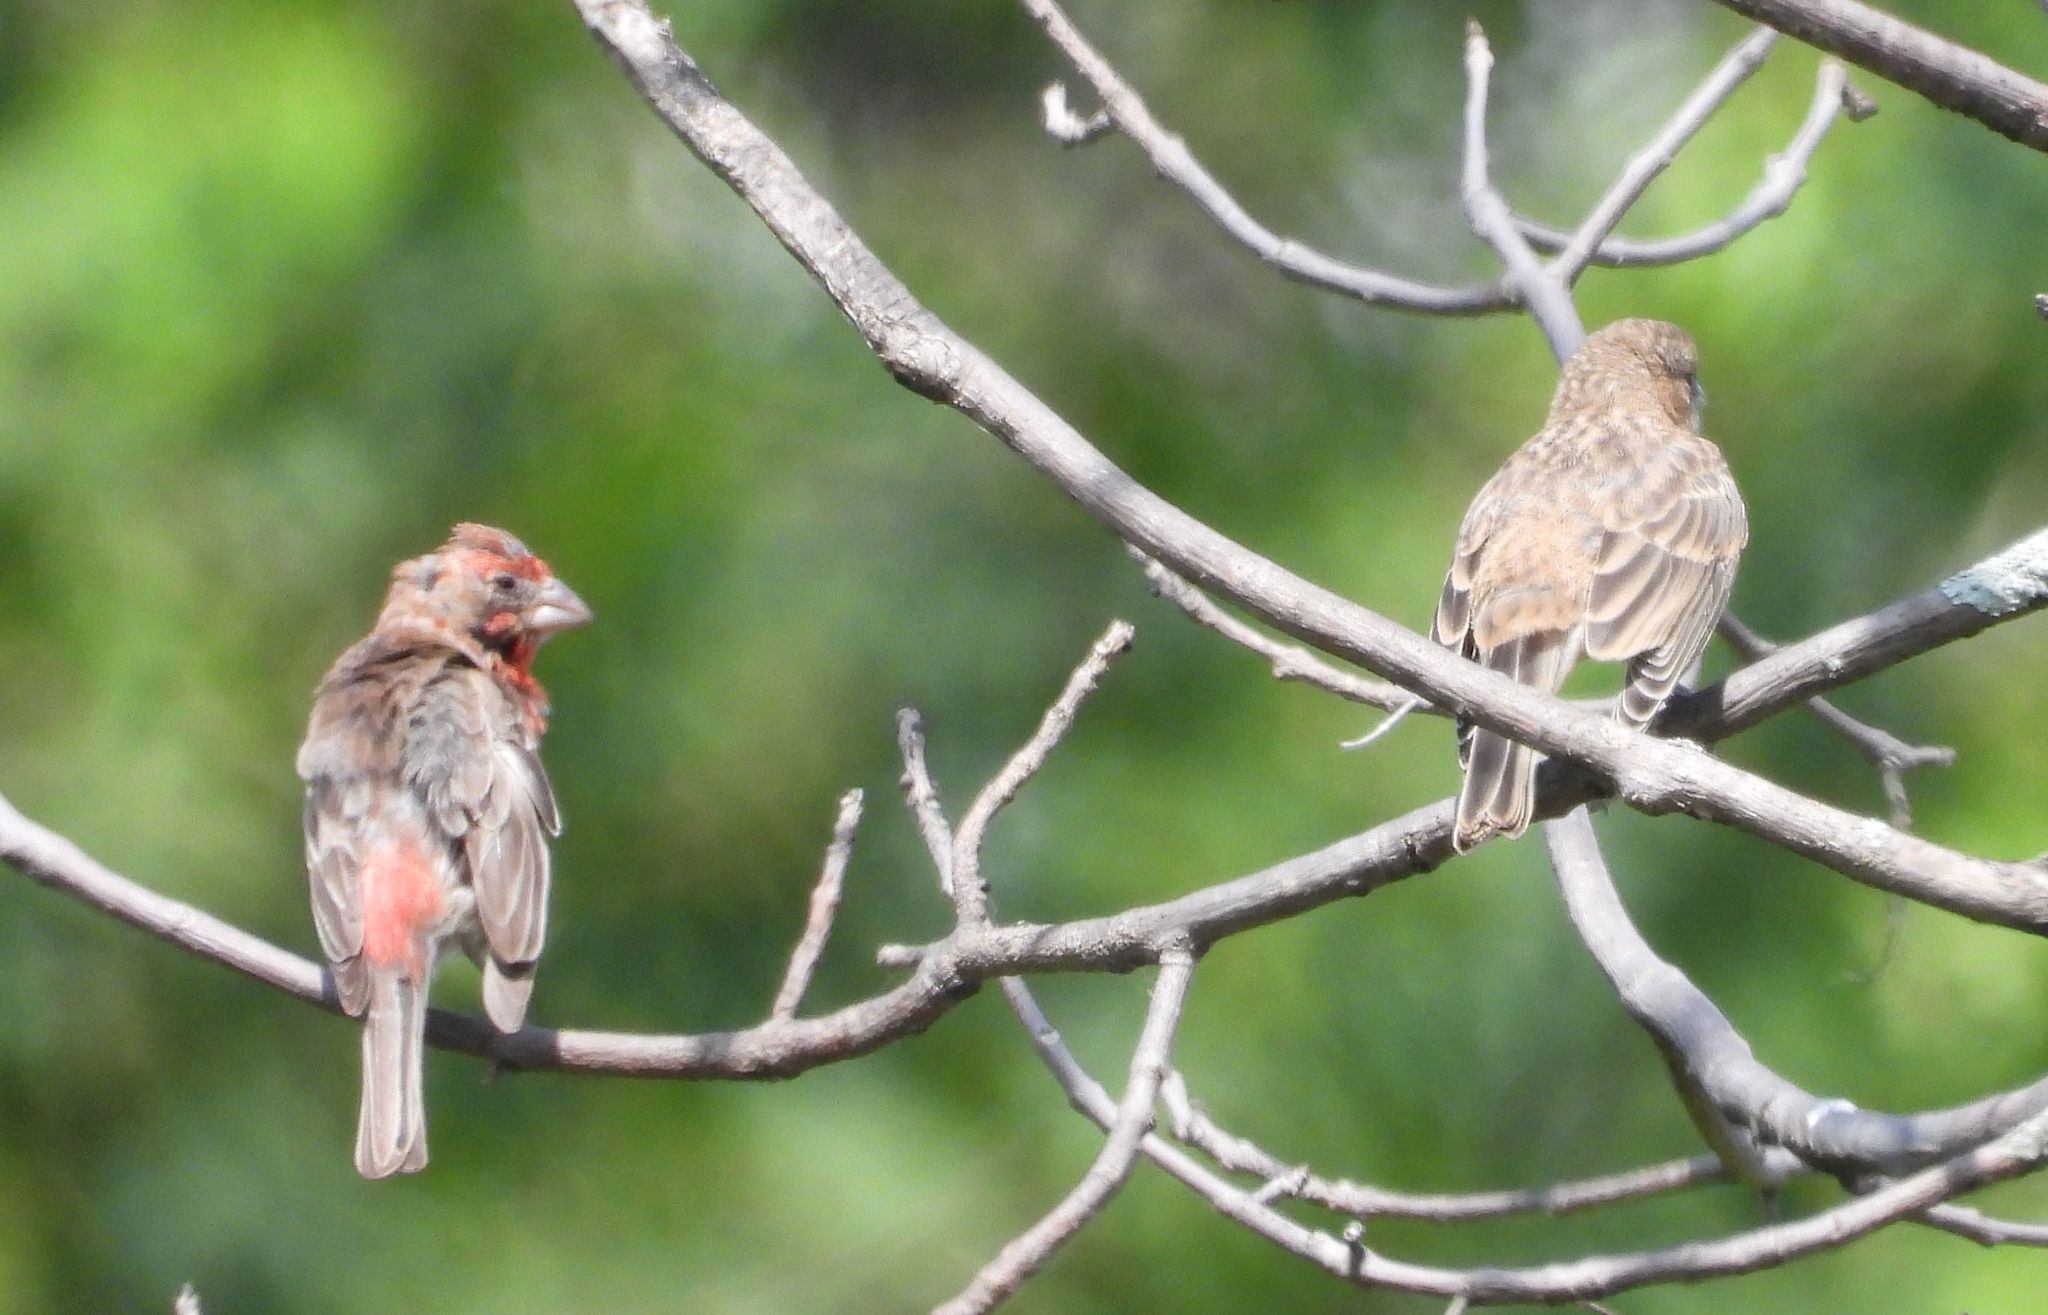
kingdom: Animalia
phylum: Chordata
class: Aves
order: Passeriformes
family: Fringillidae
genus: Haemorhous
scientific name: Haemorhous mexicanus
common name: House finch
